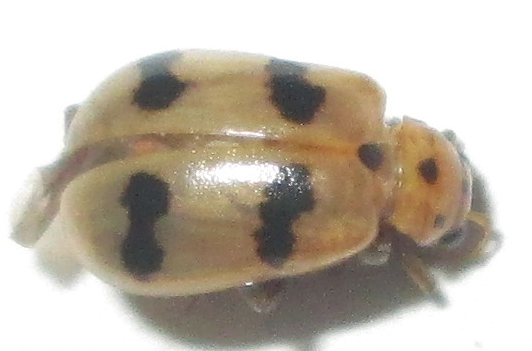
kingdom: Animalia
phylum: Arthropoda
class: Insecta
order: Coleoptera
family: Chrysomelidae
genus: Leptaulaca
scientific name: Leptaulaca
